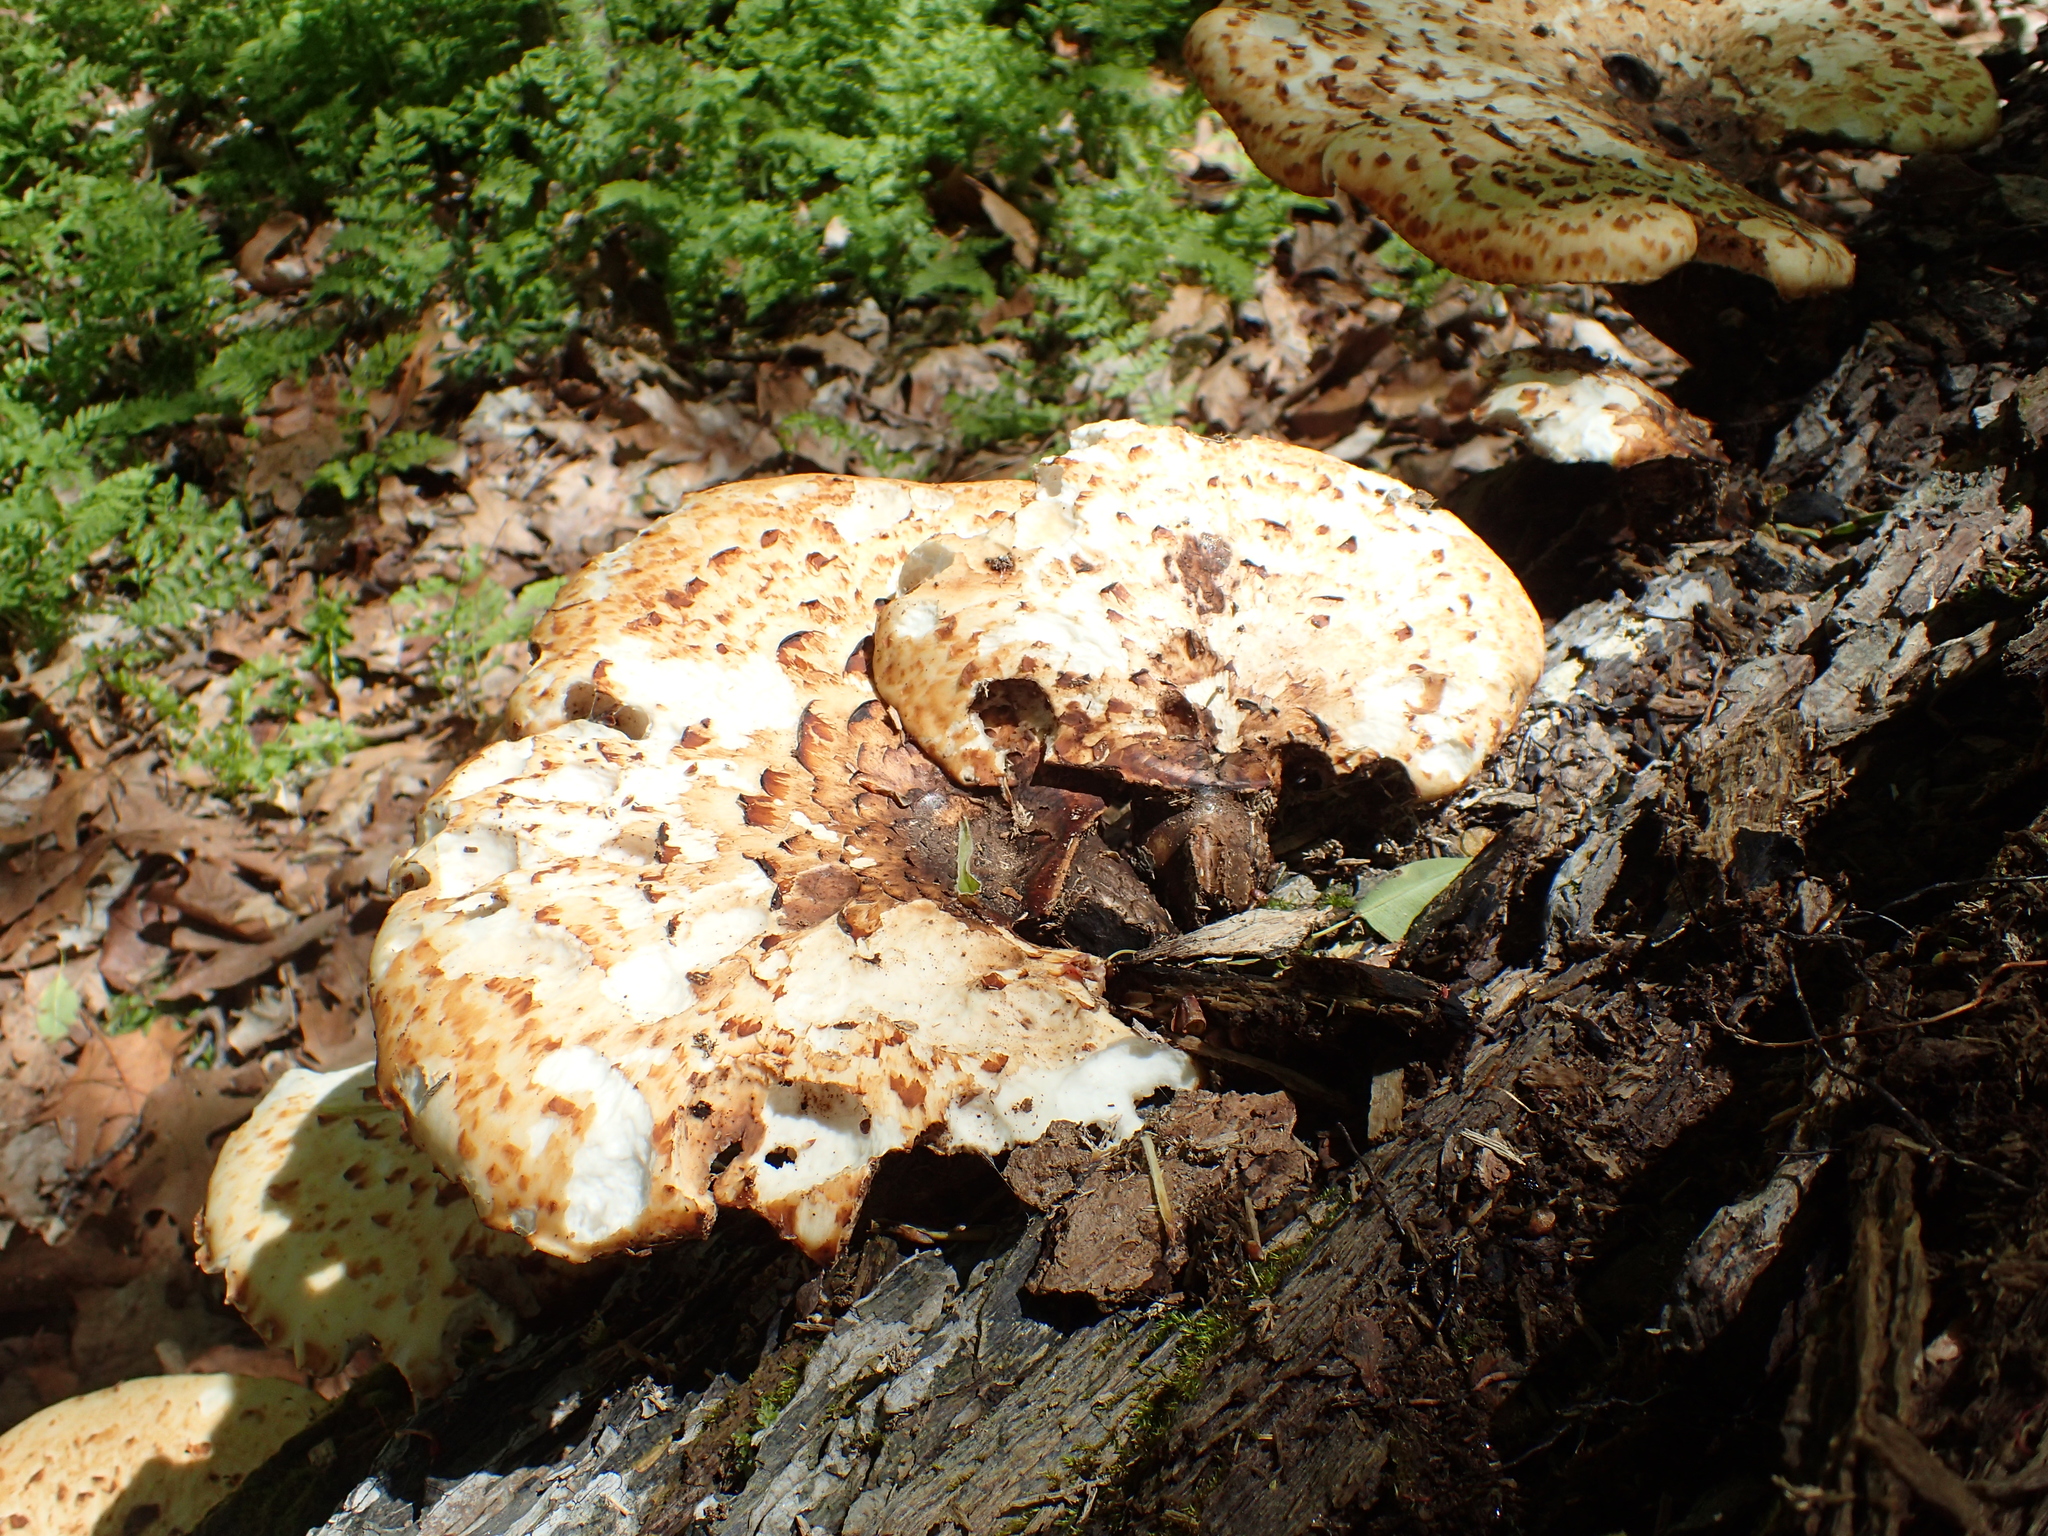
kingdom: Fungi
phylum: Basidiomycota
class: Agaricomycetes
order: Polyporales
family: Polyporaceae
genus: Cerioporus
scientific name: Cerioporus squamosus
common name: Dryad's saddle
